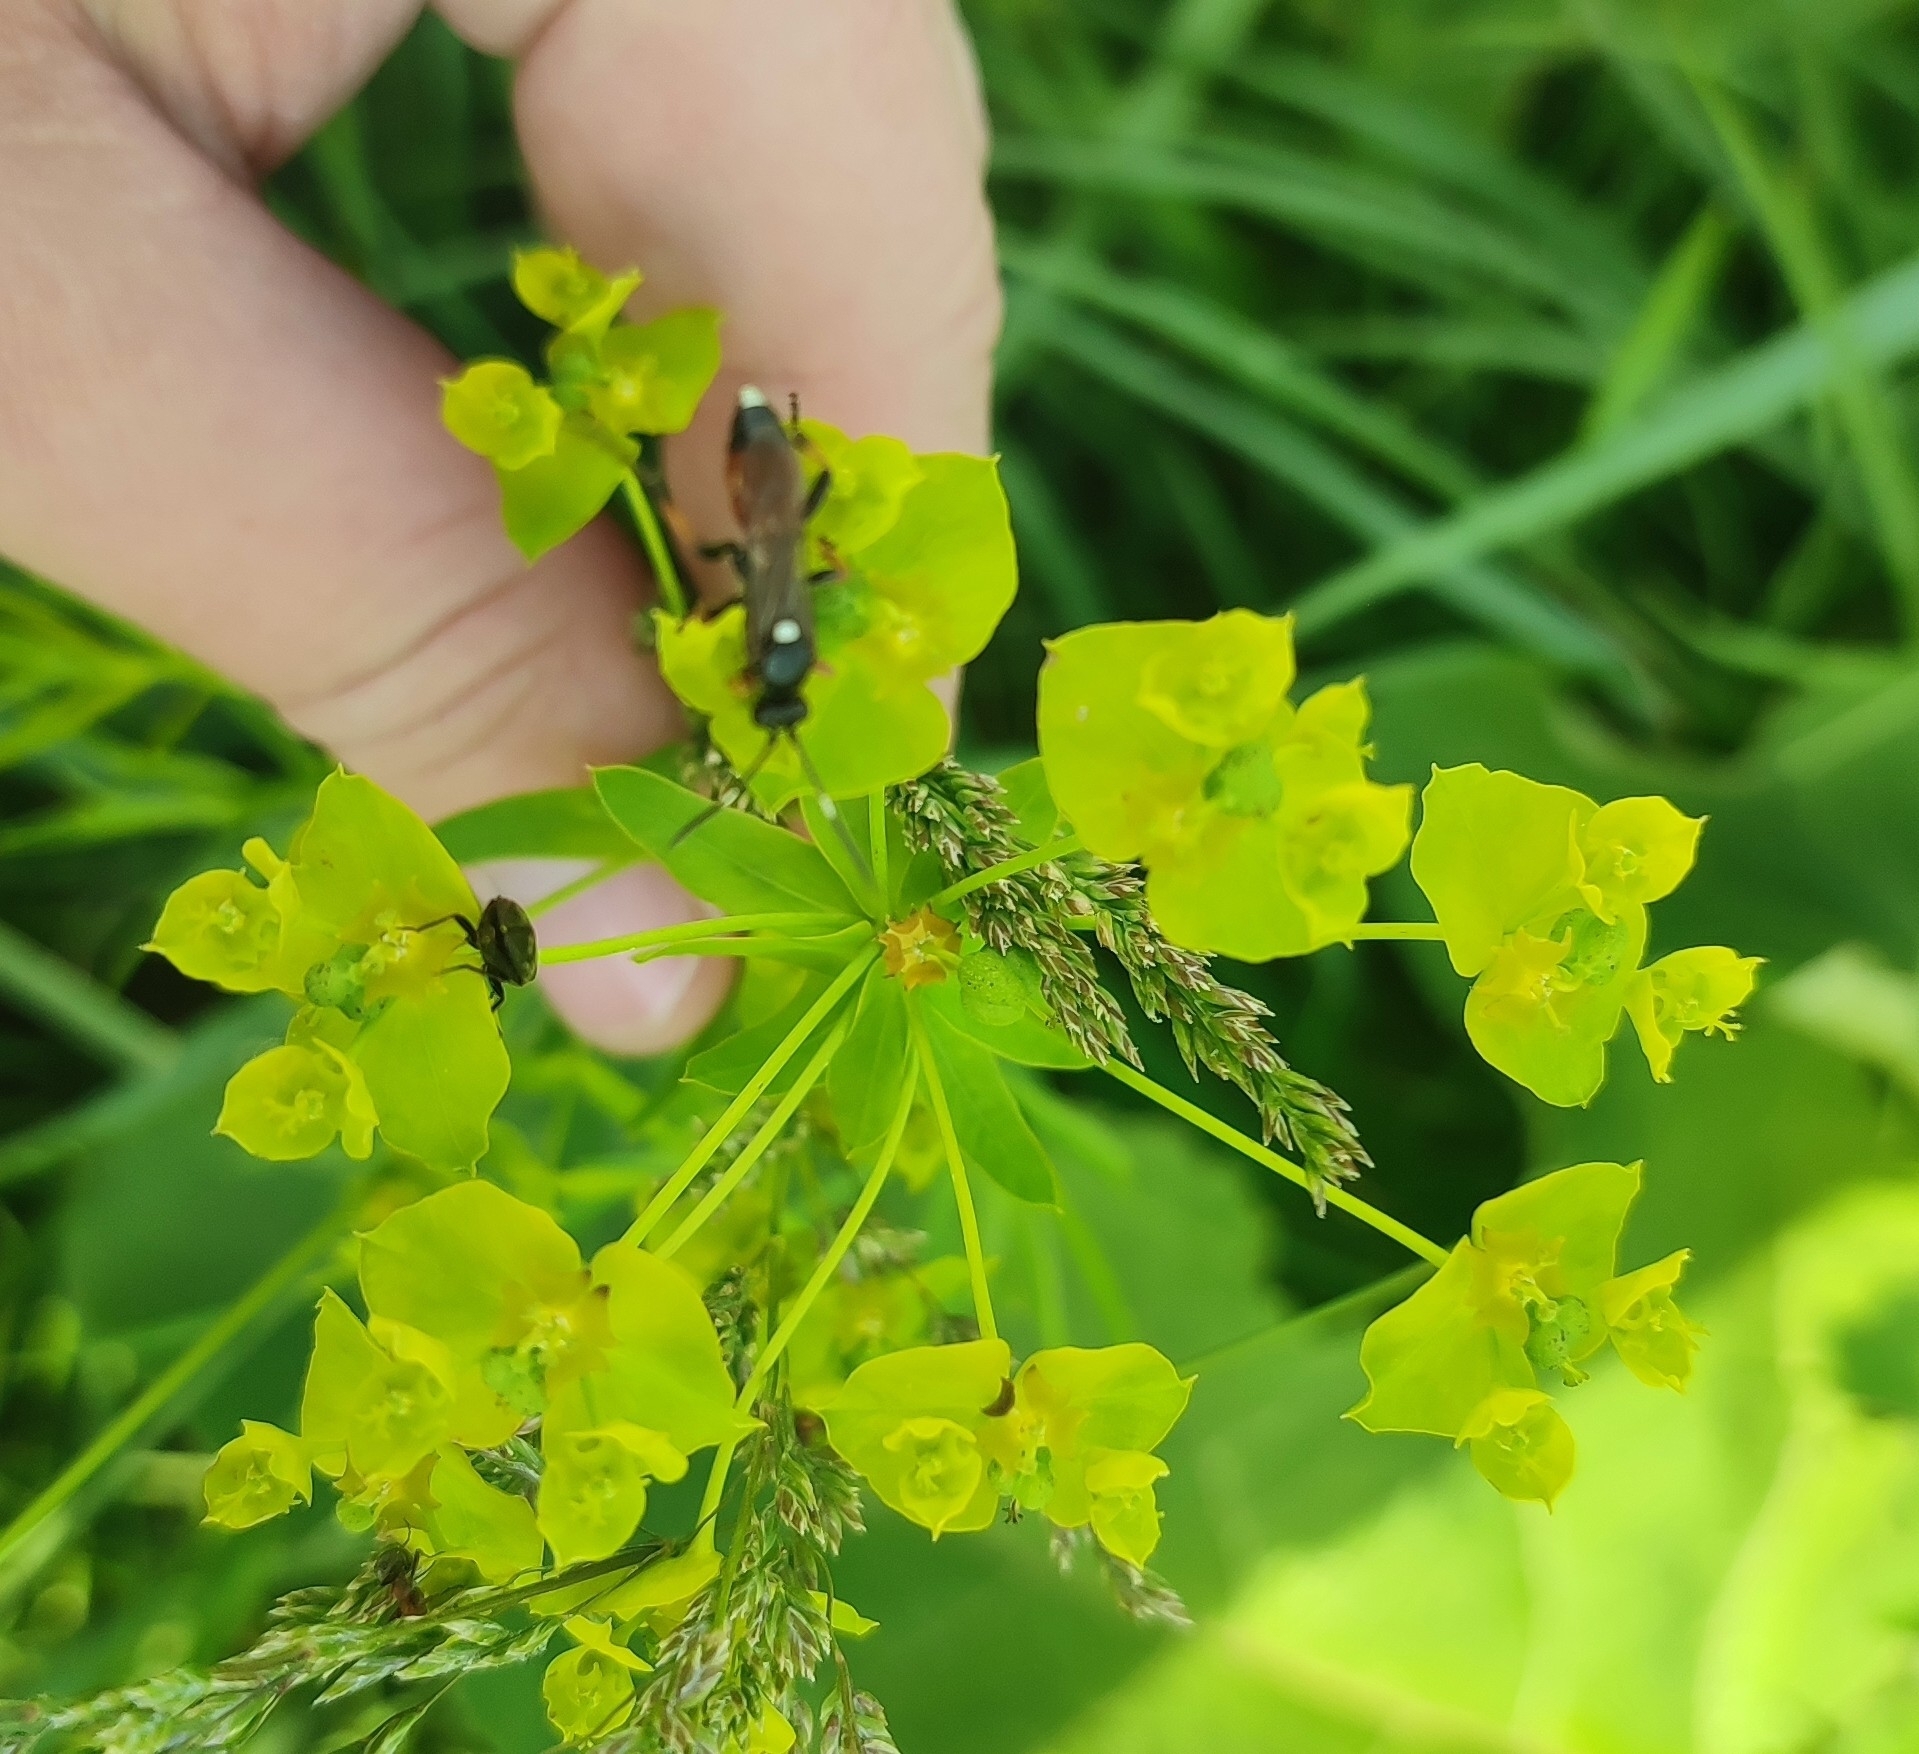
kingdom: Plantae
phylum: Tracheophyta
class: Magnoliopsida
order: Malpighiales
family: Euphorbiaceae
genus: Euphorbia
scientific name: Euphorbia virgata
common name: Leafy spurge
